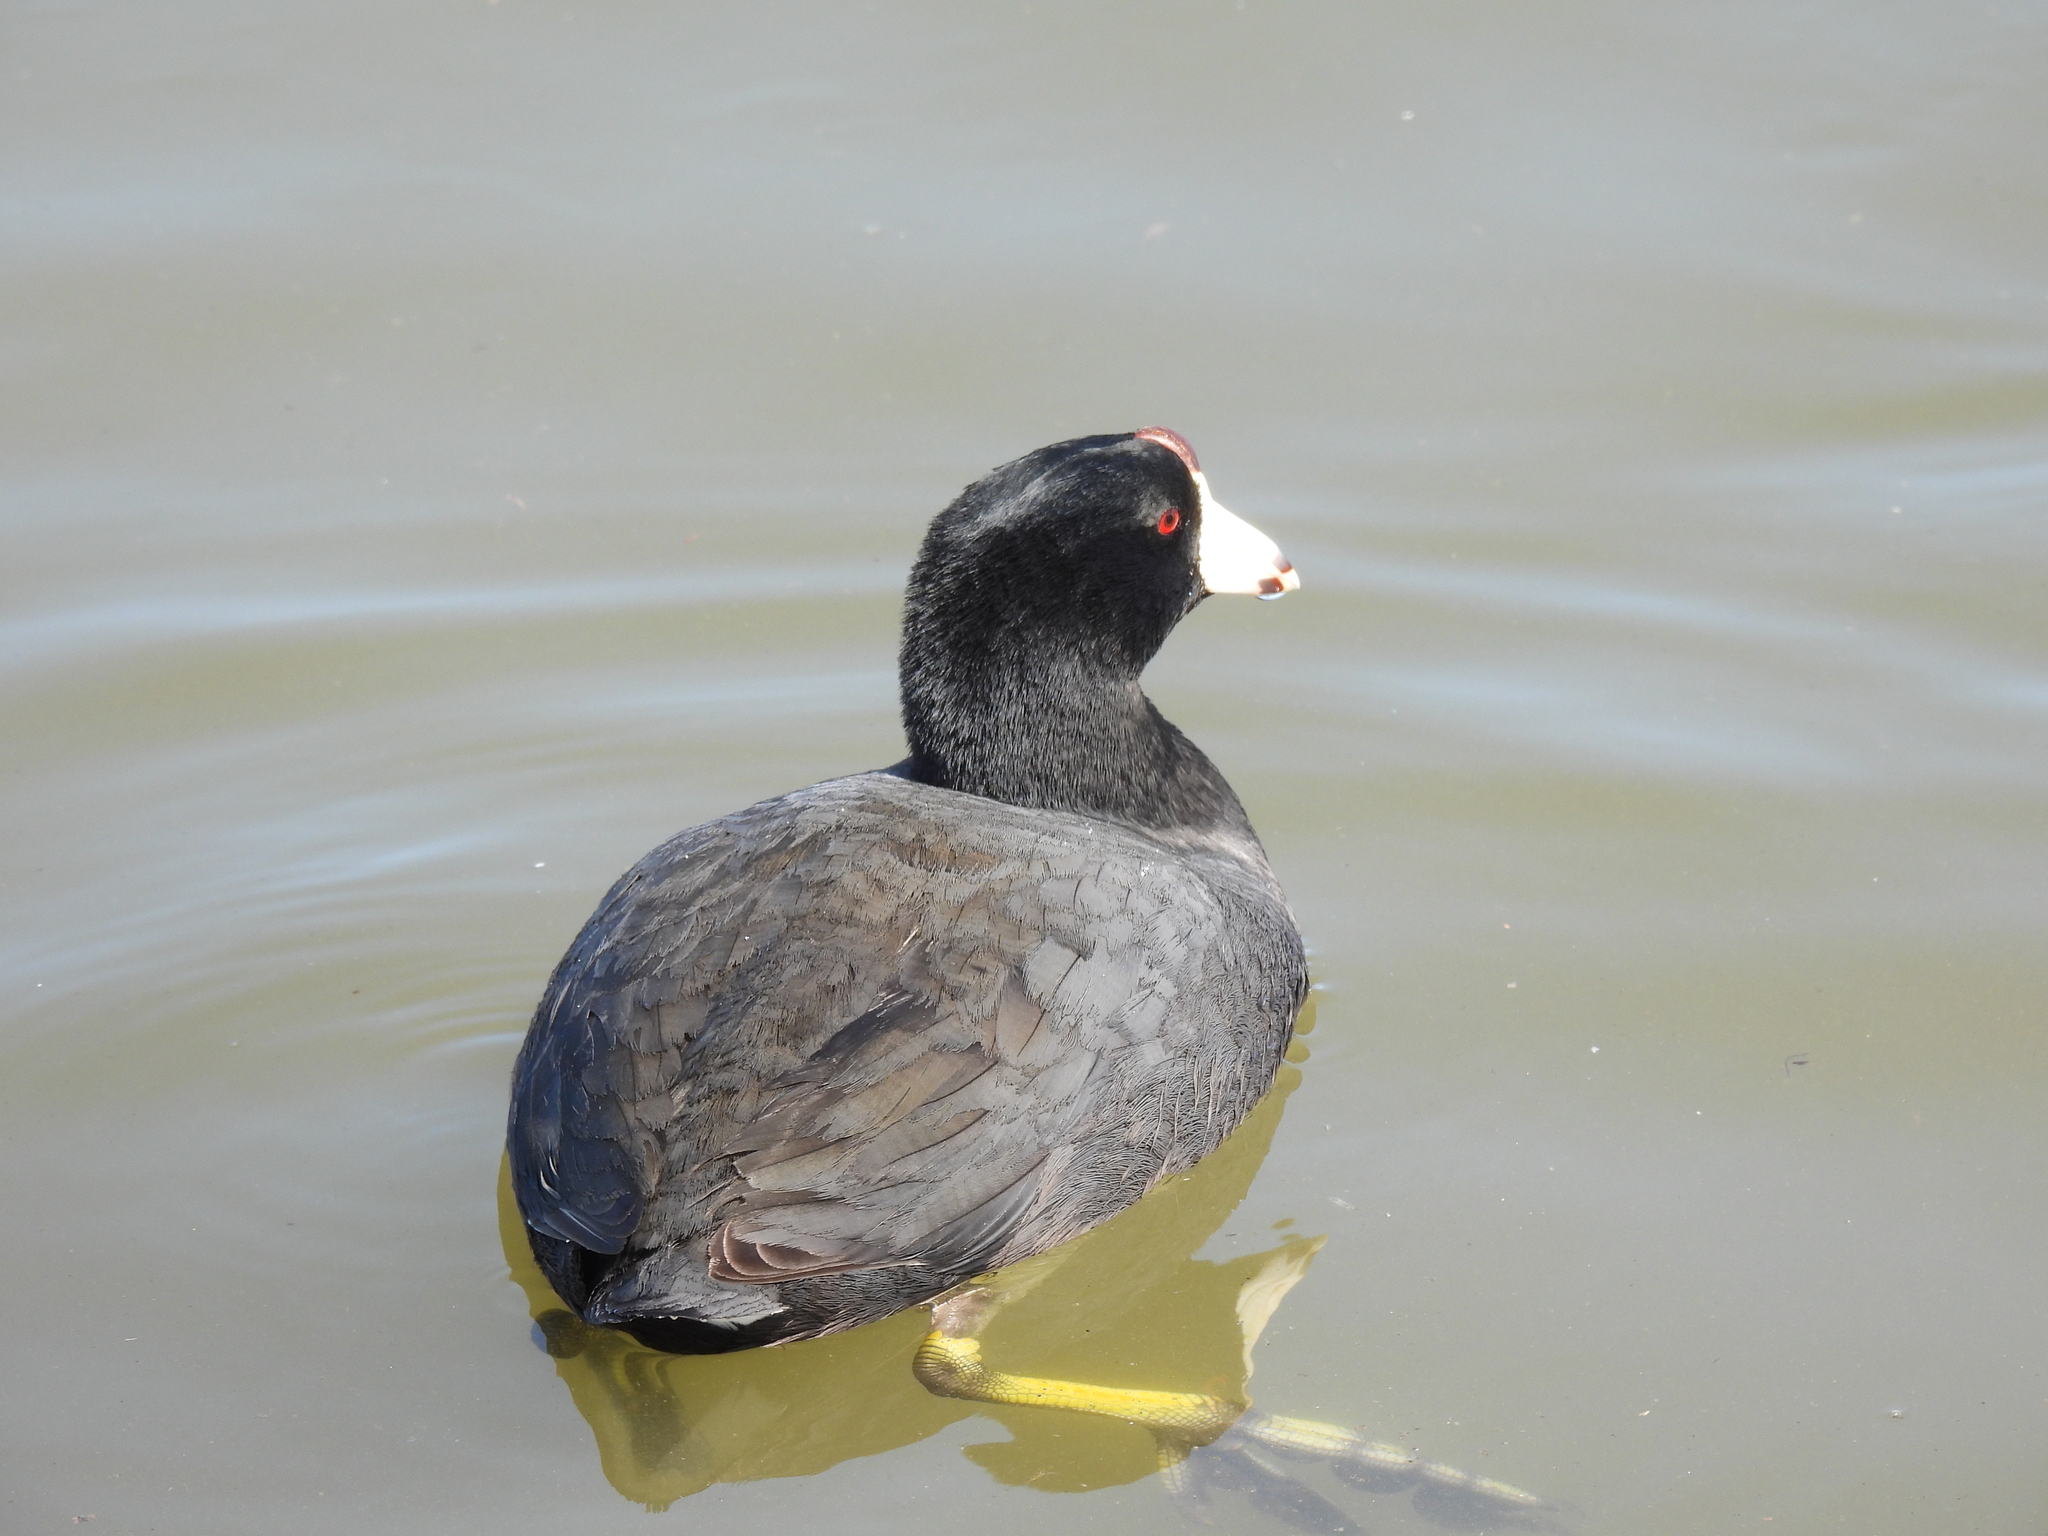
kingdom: Animalia
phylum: Chordata
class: Aves
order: Gruiformes
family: Rallidae
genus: Fulica
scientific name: Fulica americana
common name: American coot
